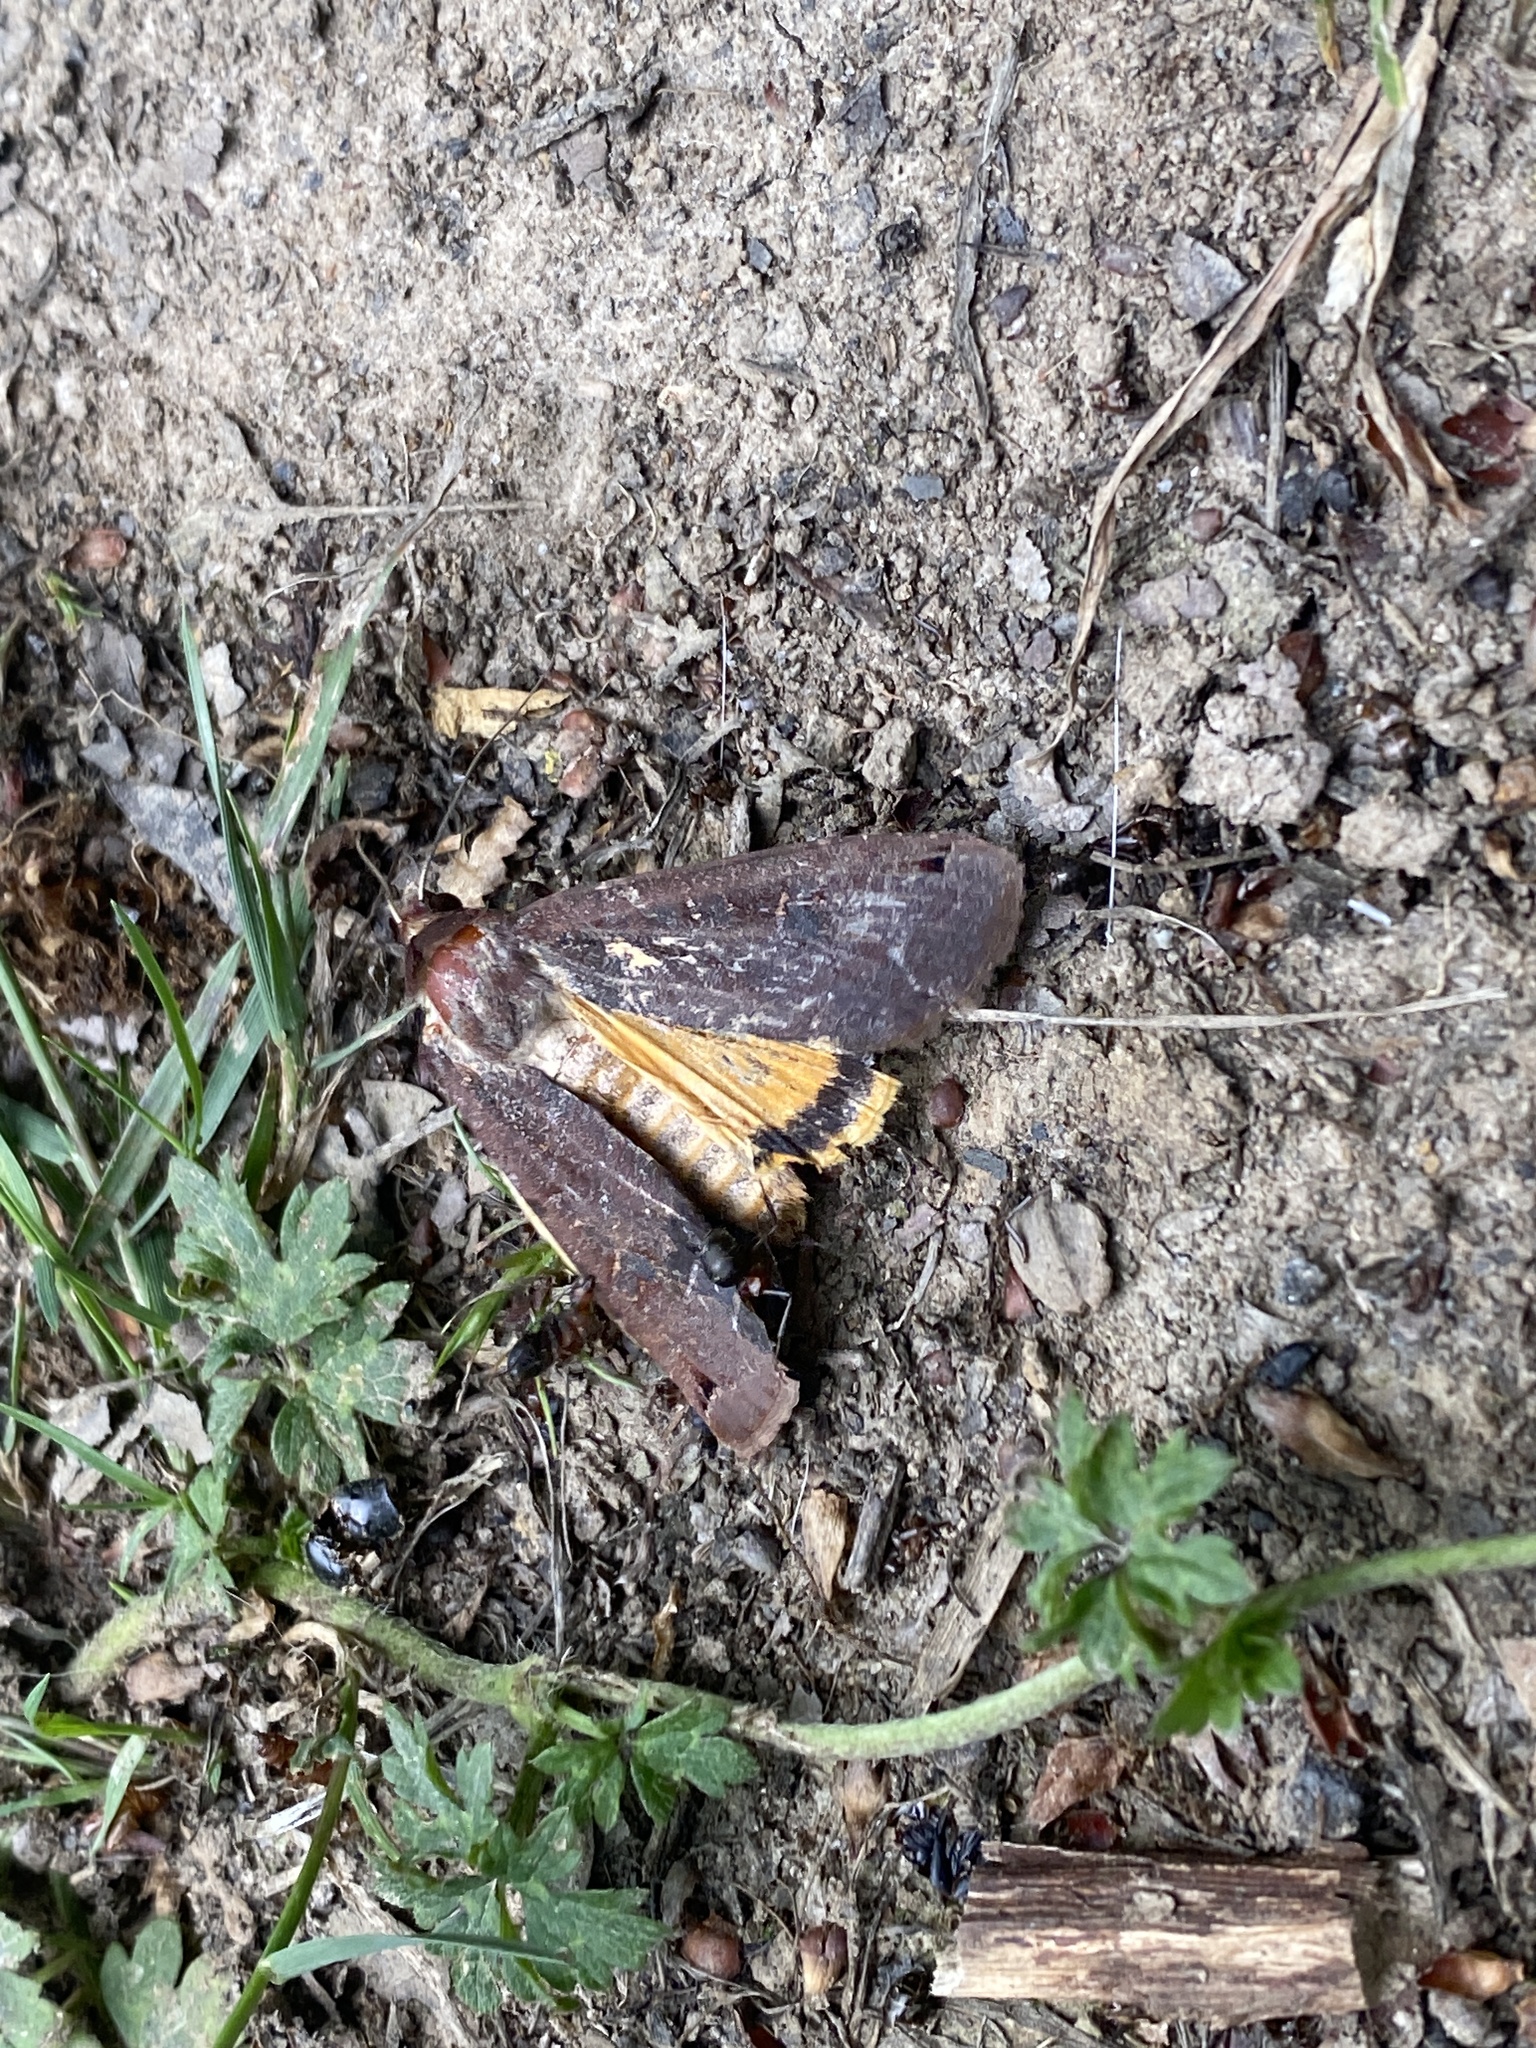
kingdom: Animalia
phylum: Arthropoda
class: Insecta
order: Lepidoptera
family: Noctuidae
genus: Noctua
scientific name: Noctua pronuba
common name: Large yellow underwing
